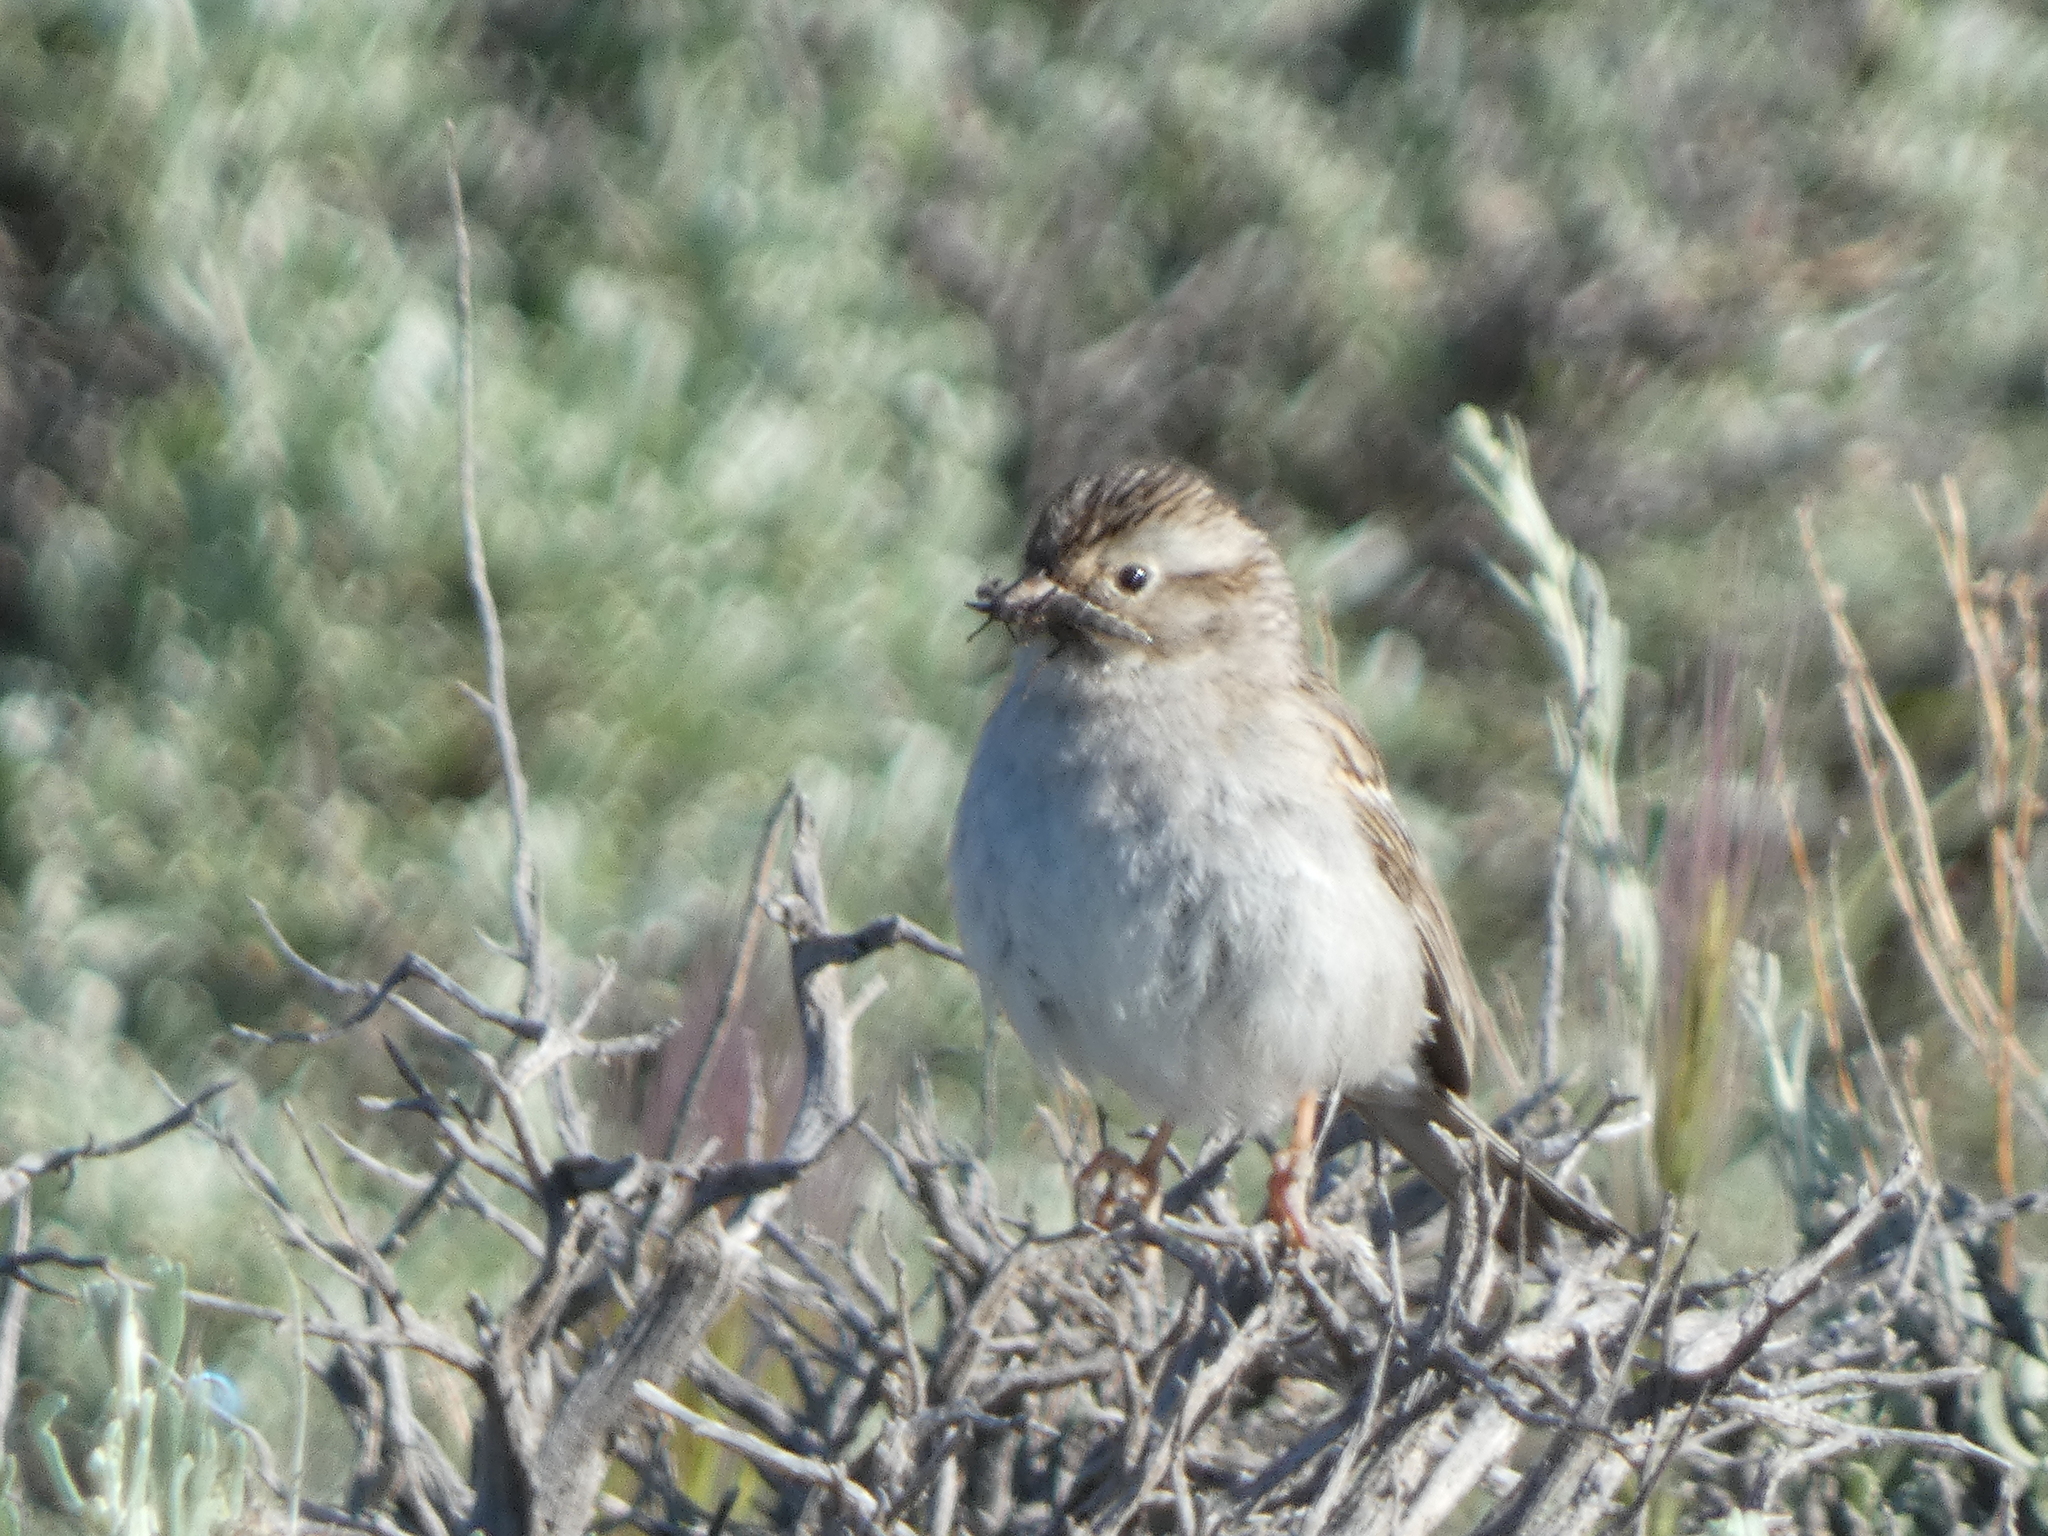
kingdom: Animalia
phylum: Chordata
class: Aves
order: Passeriformes
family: Passerellidae
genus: Spizella
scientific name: Spizella breweri
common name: Brewer's sparrow
